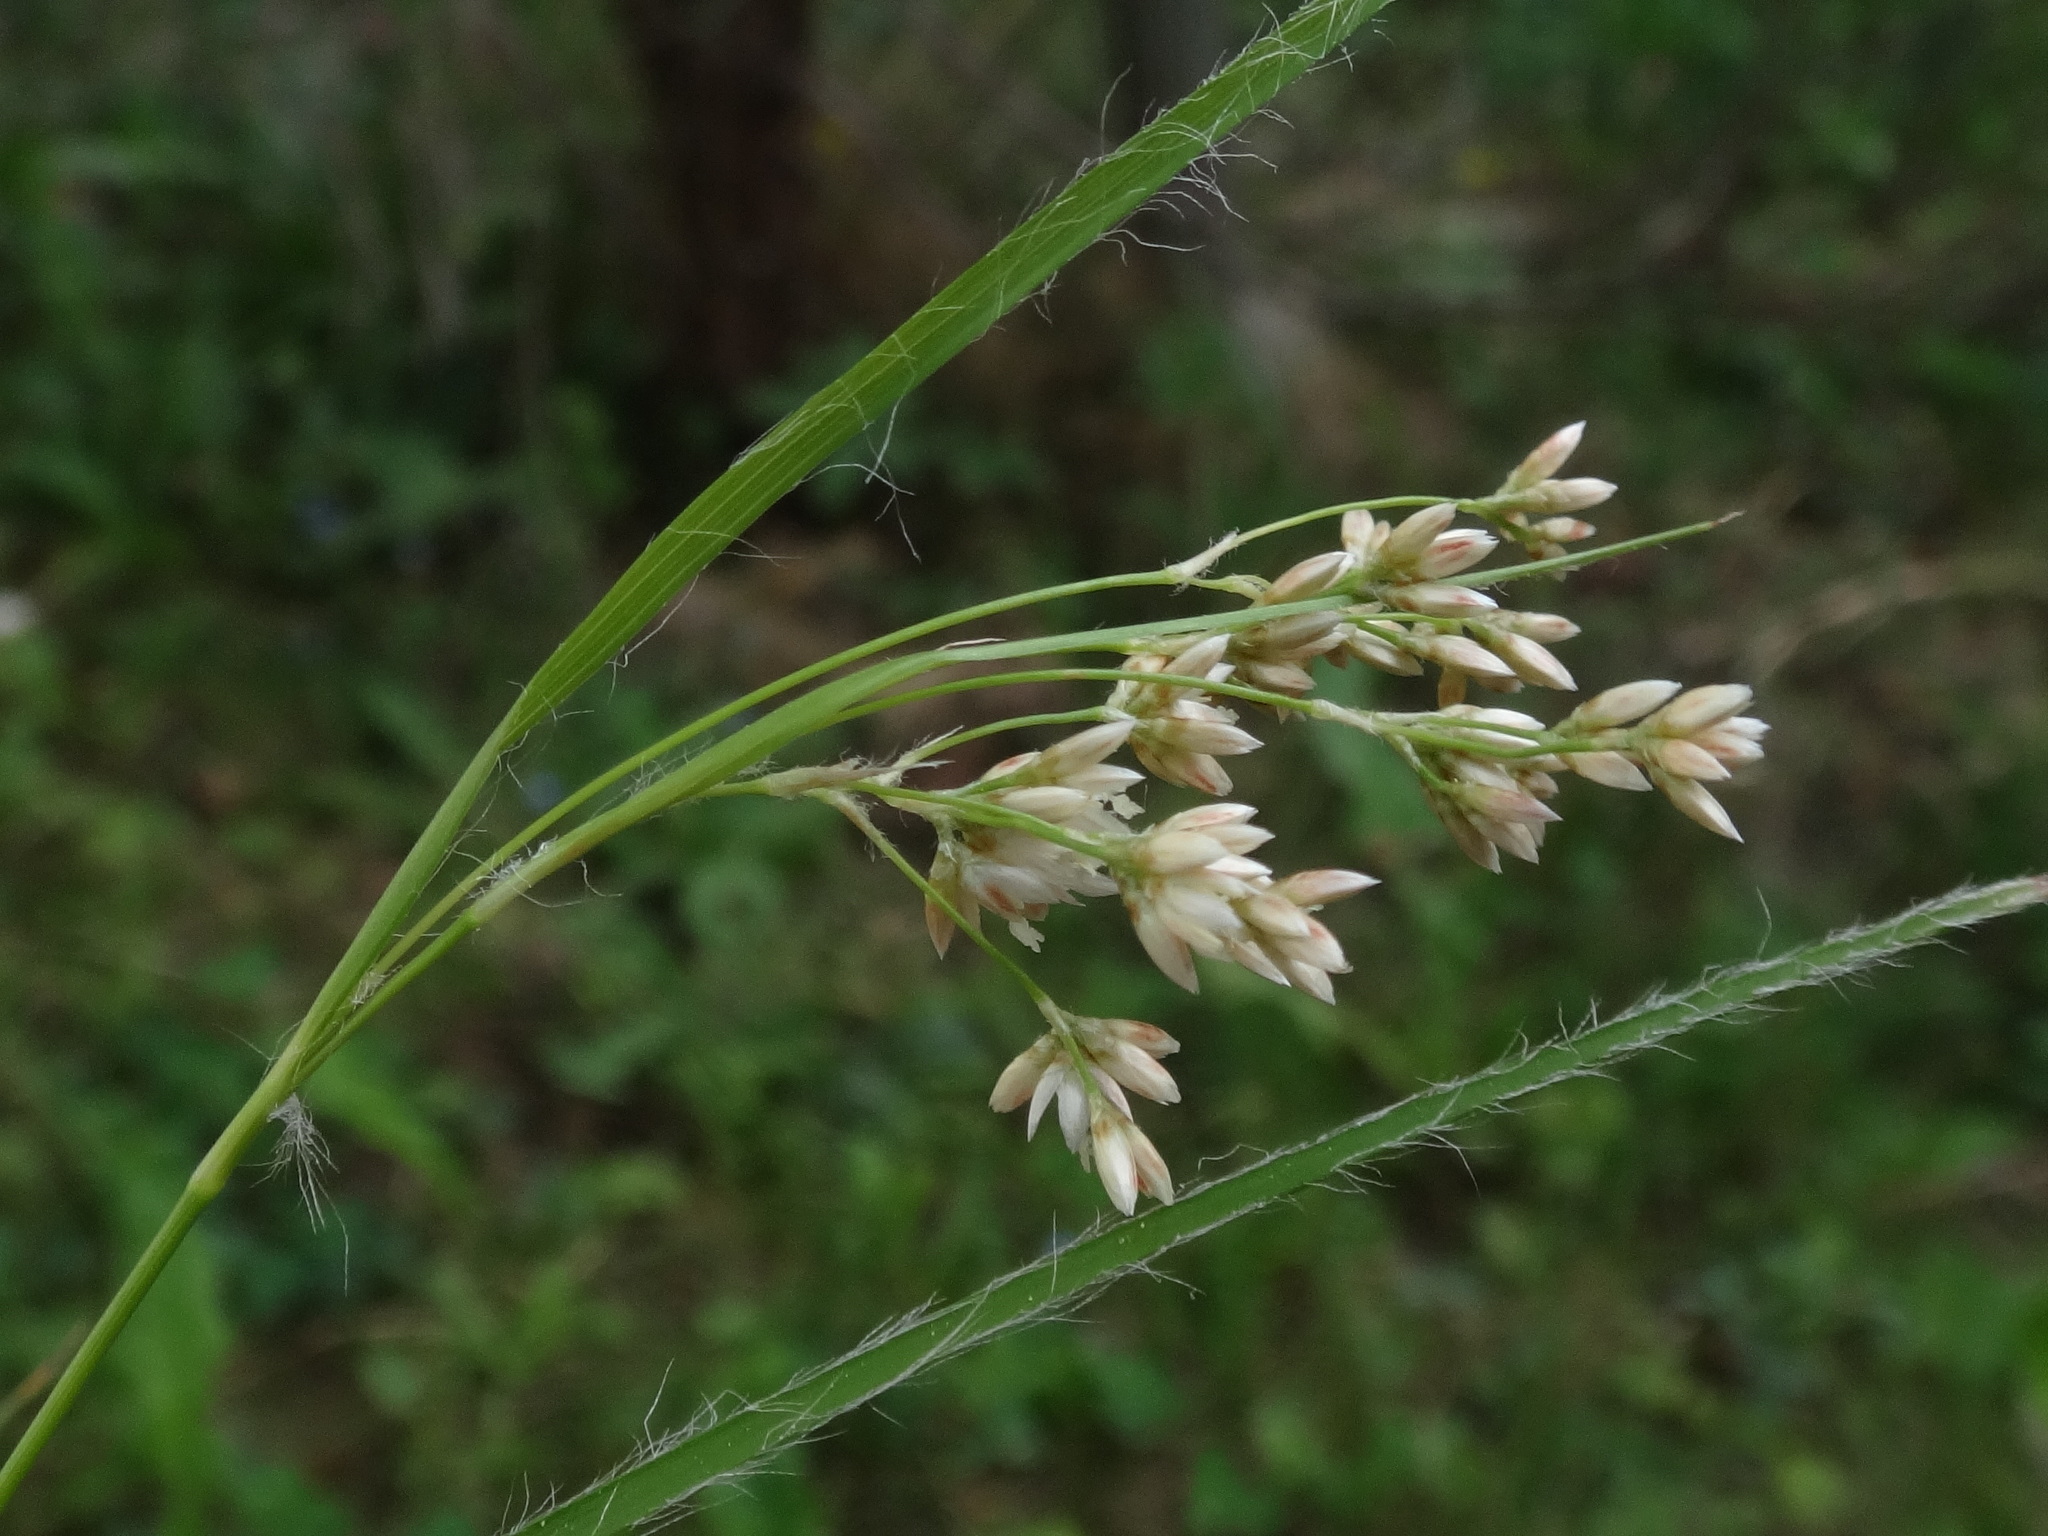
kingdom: Plantae
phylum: Tracheophyta
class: Liliopsida
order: Poales
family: Juncaceae
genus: Luzula
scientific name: Luzula luzuloides
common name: White wood-rush
